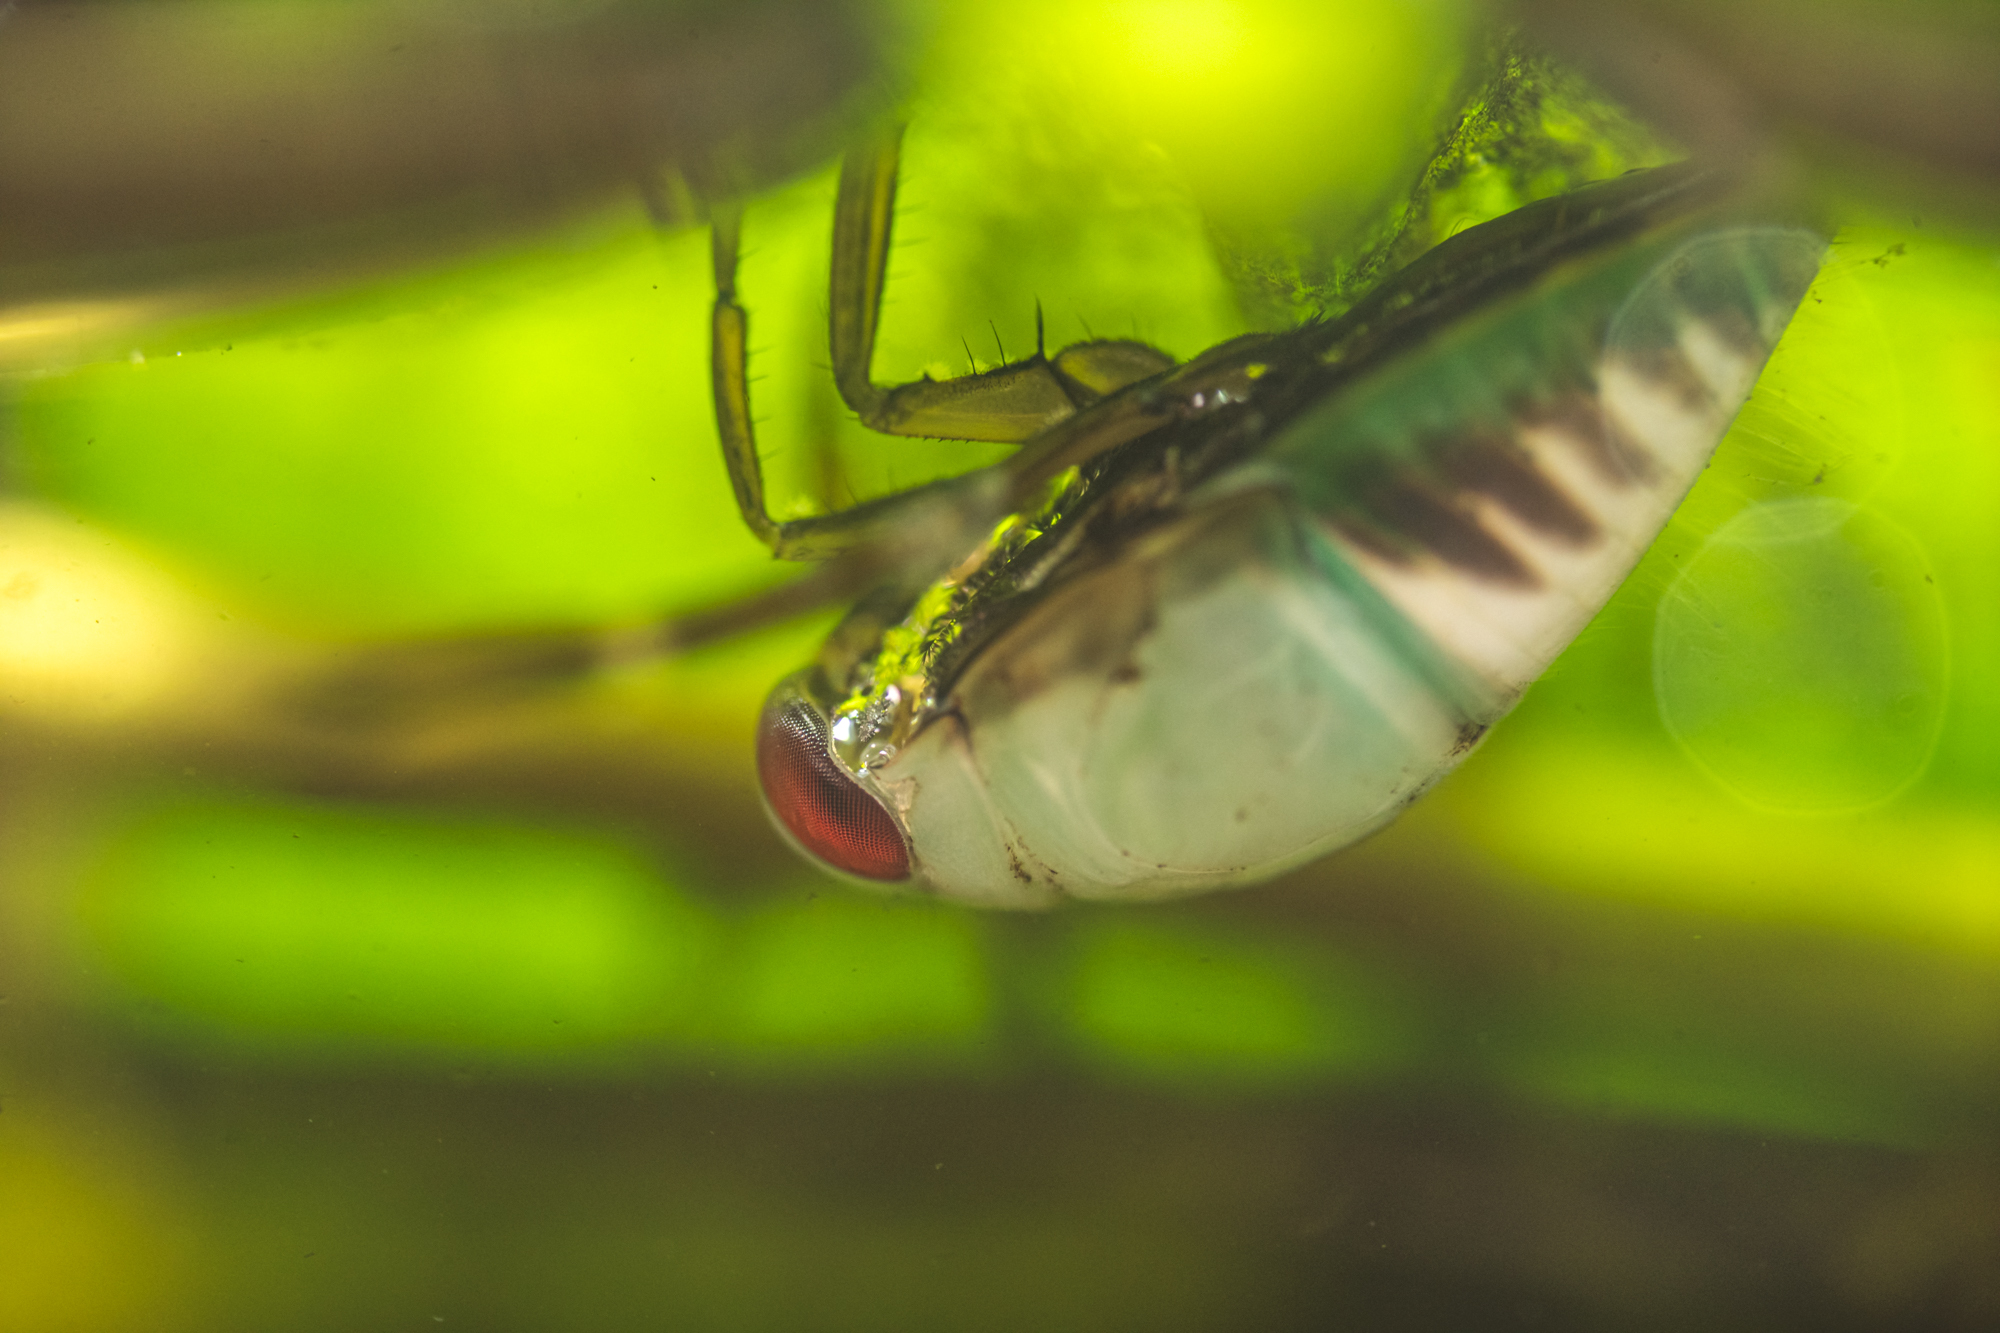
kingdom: Animalia
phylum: Arthropoda
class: Insecta
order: Hemiptera
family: Notonectidae
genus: Notonecta
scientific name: Notonecta
